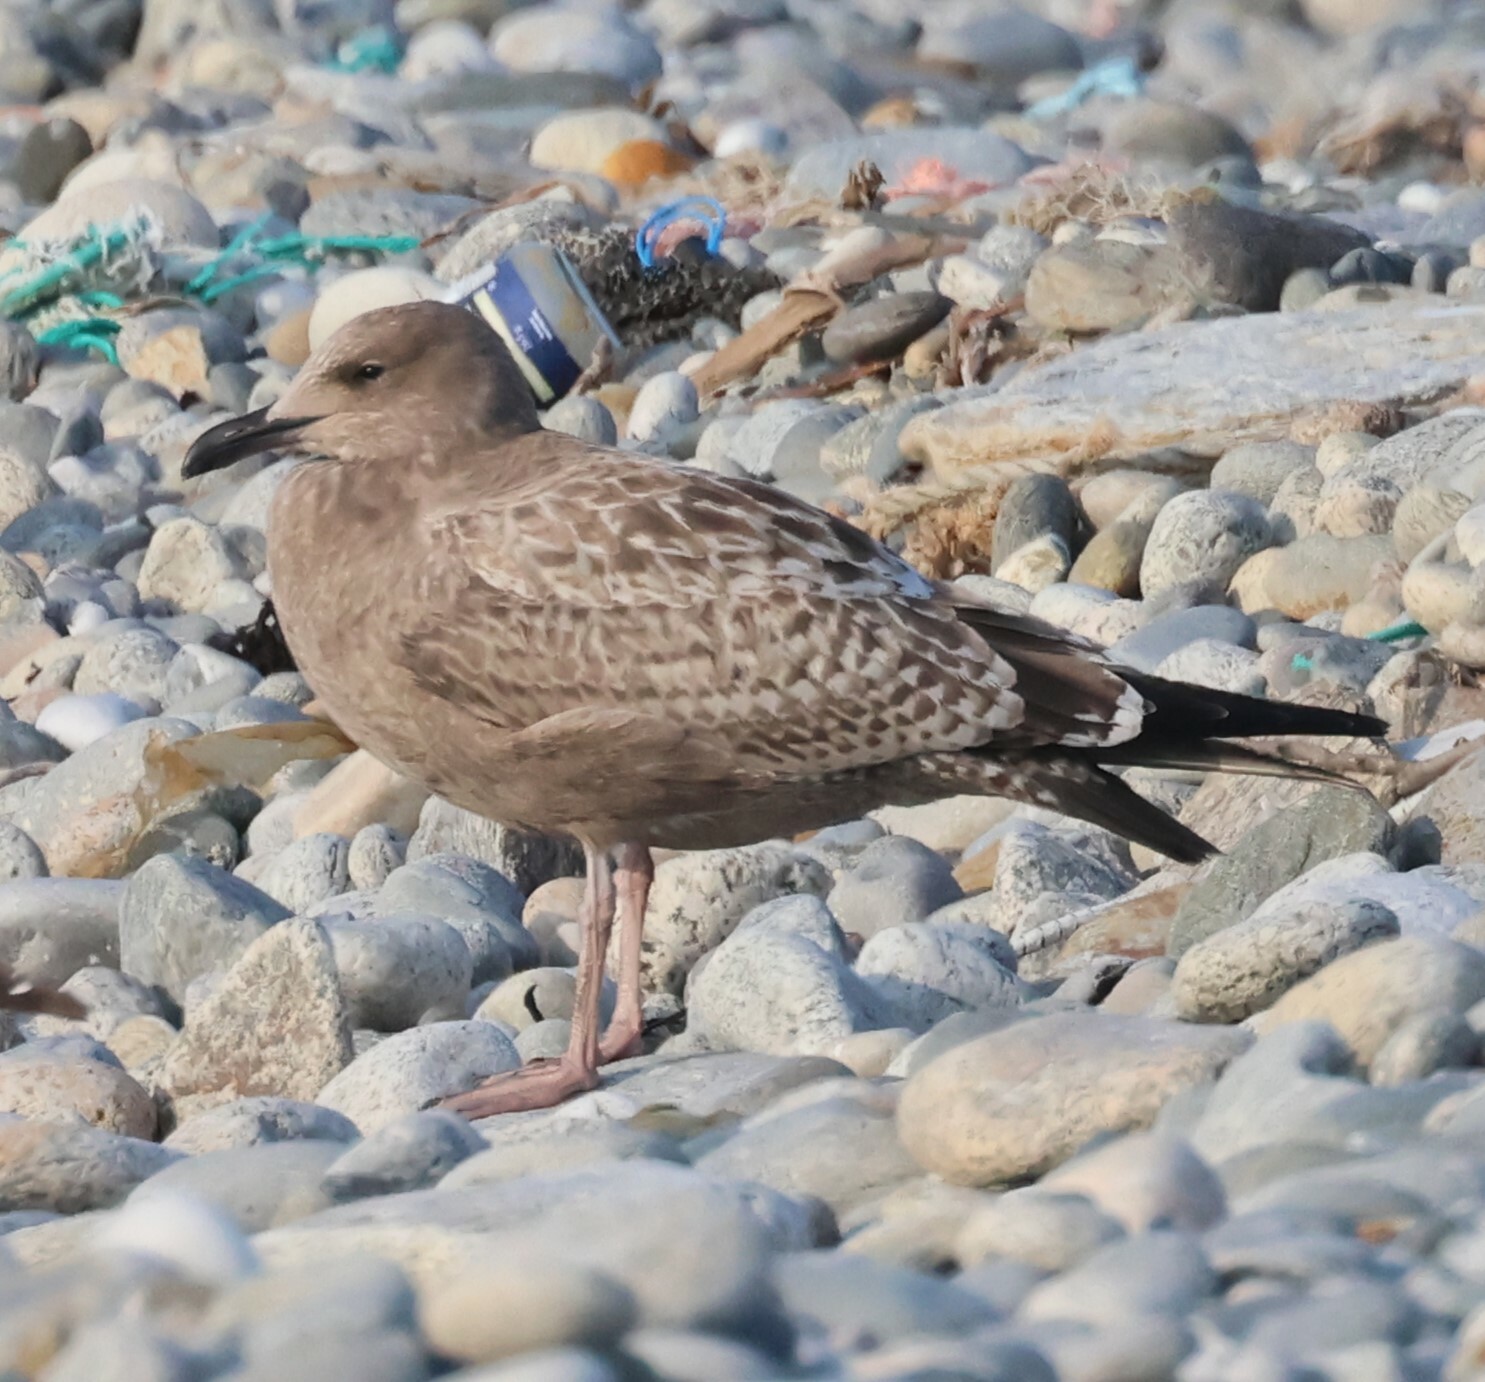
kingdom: Animalia
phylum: Chordata
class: Aves
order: Charadriiformes
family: Laridae
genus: Larus
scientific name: Larus argentatus
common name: Herring gull
